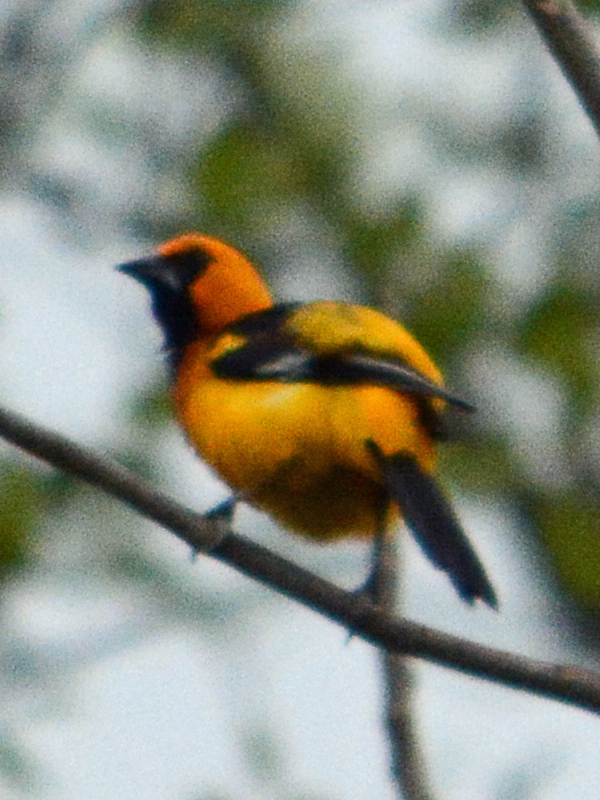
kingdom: Animalia
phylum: Chordata
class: Aves
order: Passeriformes
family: Icteridae
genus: Icterus
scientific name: Icterus gularis
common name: Altamira oriole
